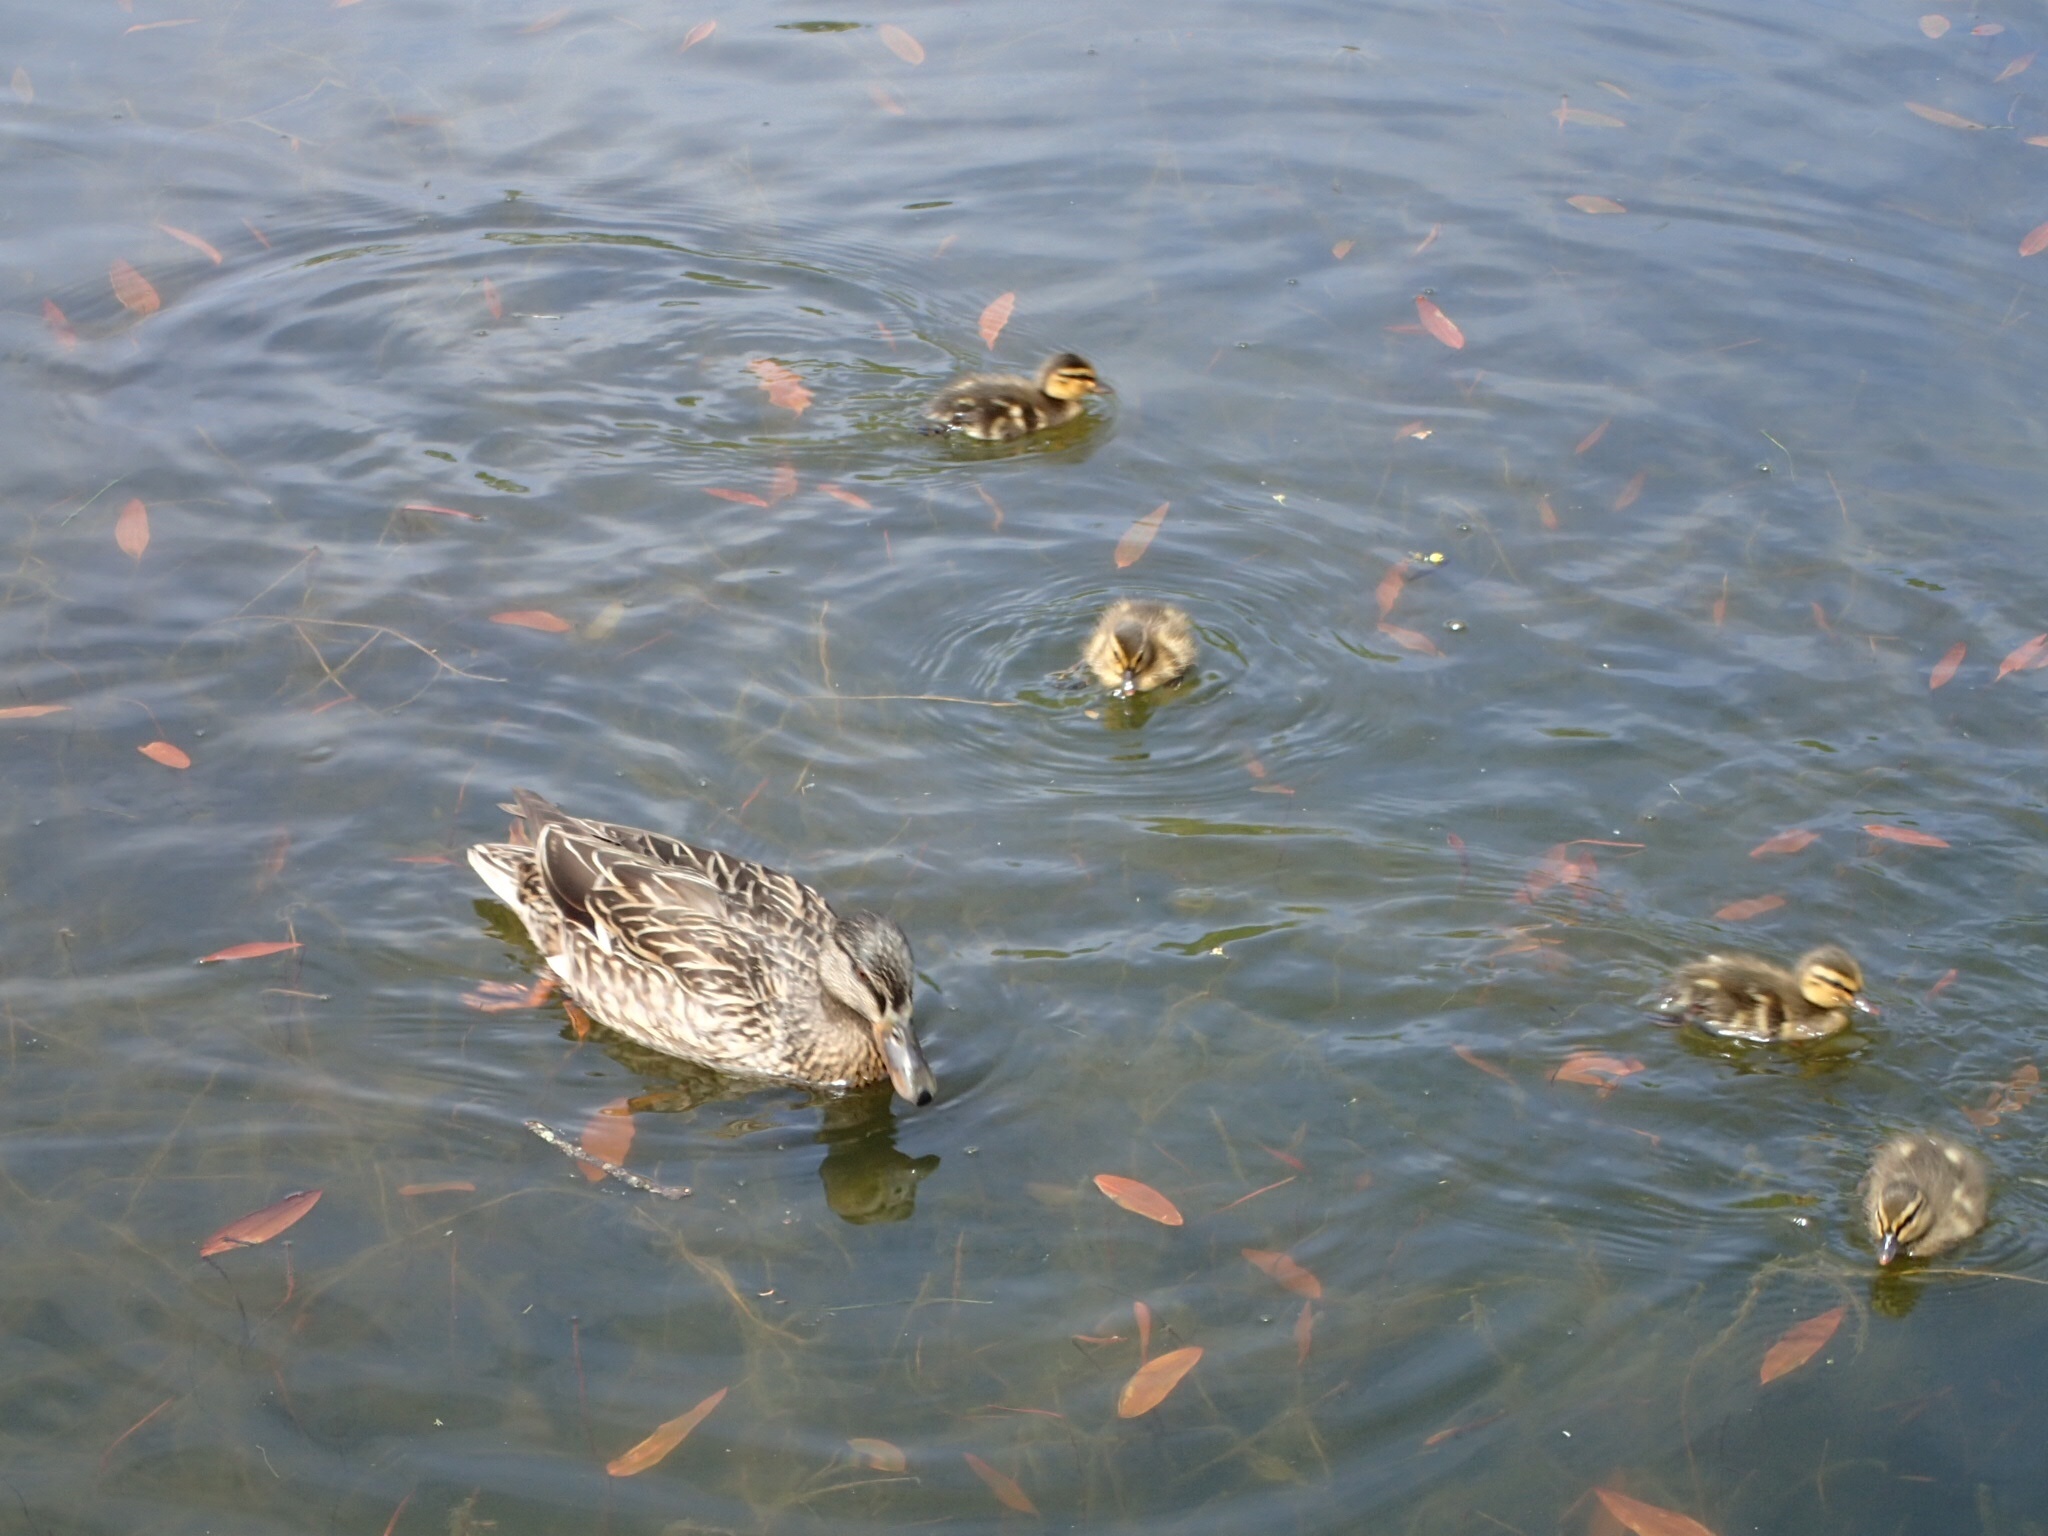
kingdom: Animalia
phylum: Chordata
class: Aves
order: Anseriformes
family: Anatidae
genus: Anas
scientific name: Anas platyrhynchos
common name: Mallard
